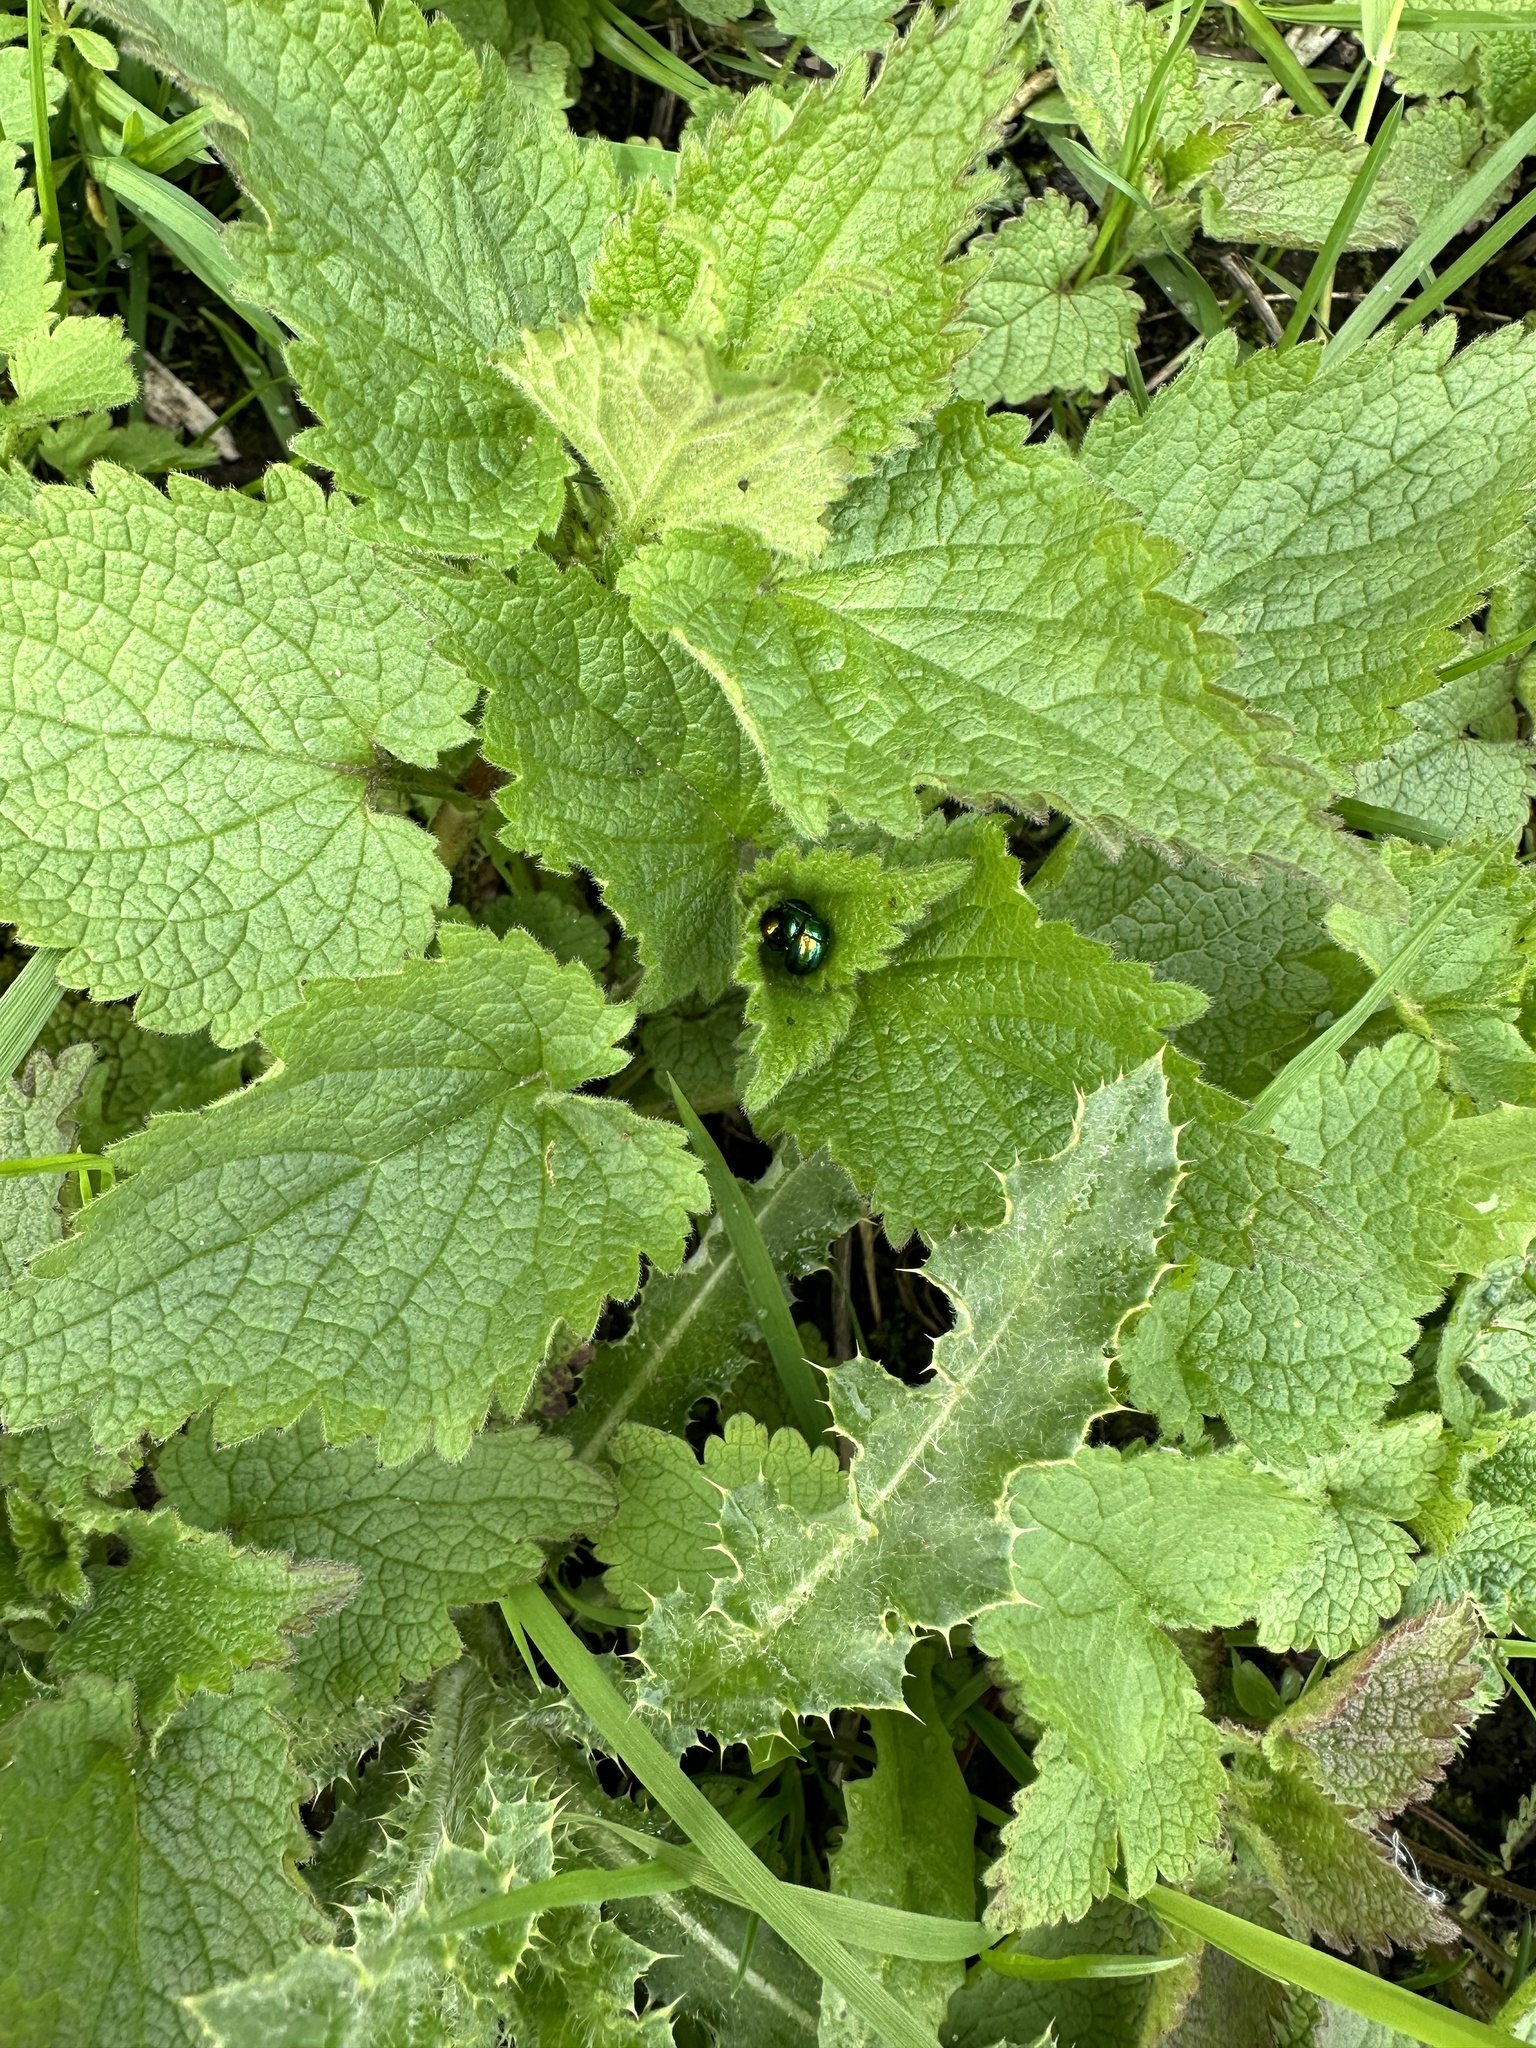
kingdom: Plantae
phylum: Tracheophyta
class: Magnoliopsida
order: Lamiales
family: Lamiaceae
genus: Lamium
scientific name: Lamium album
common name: White dead-nettle
